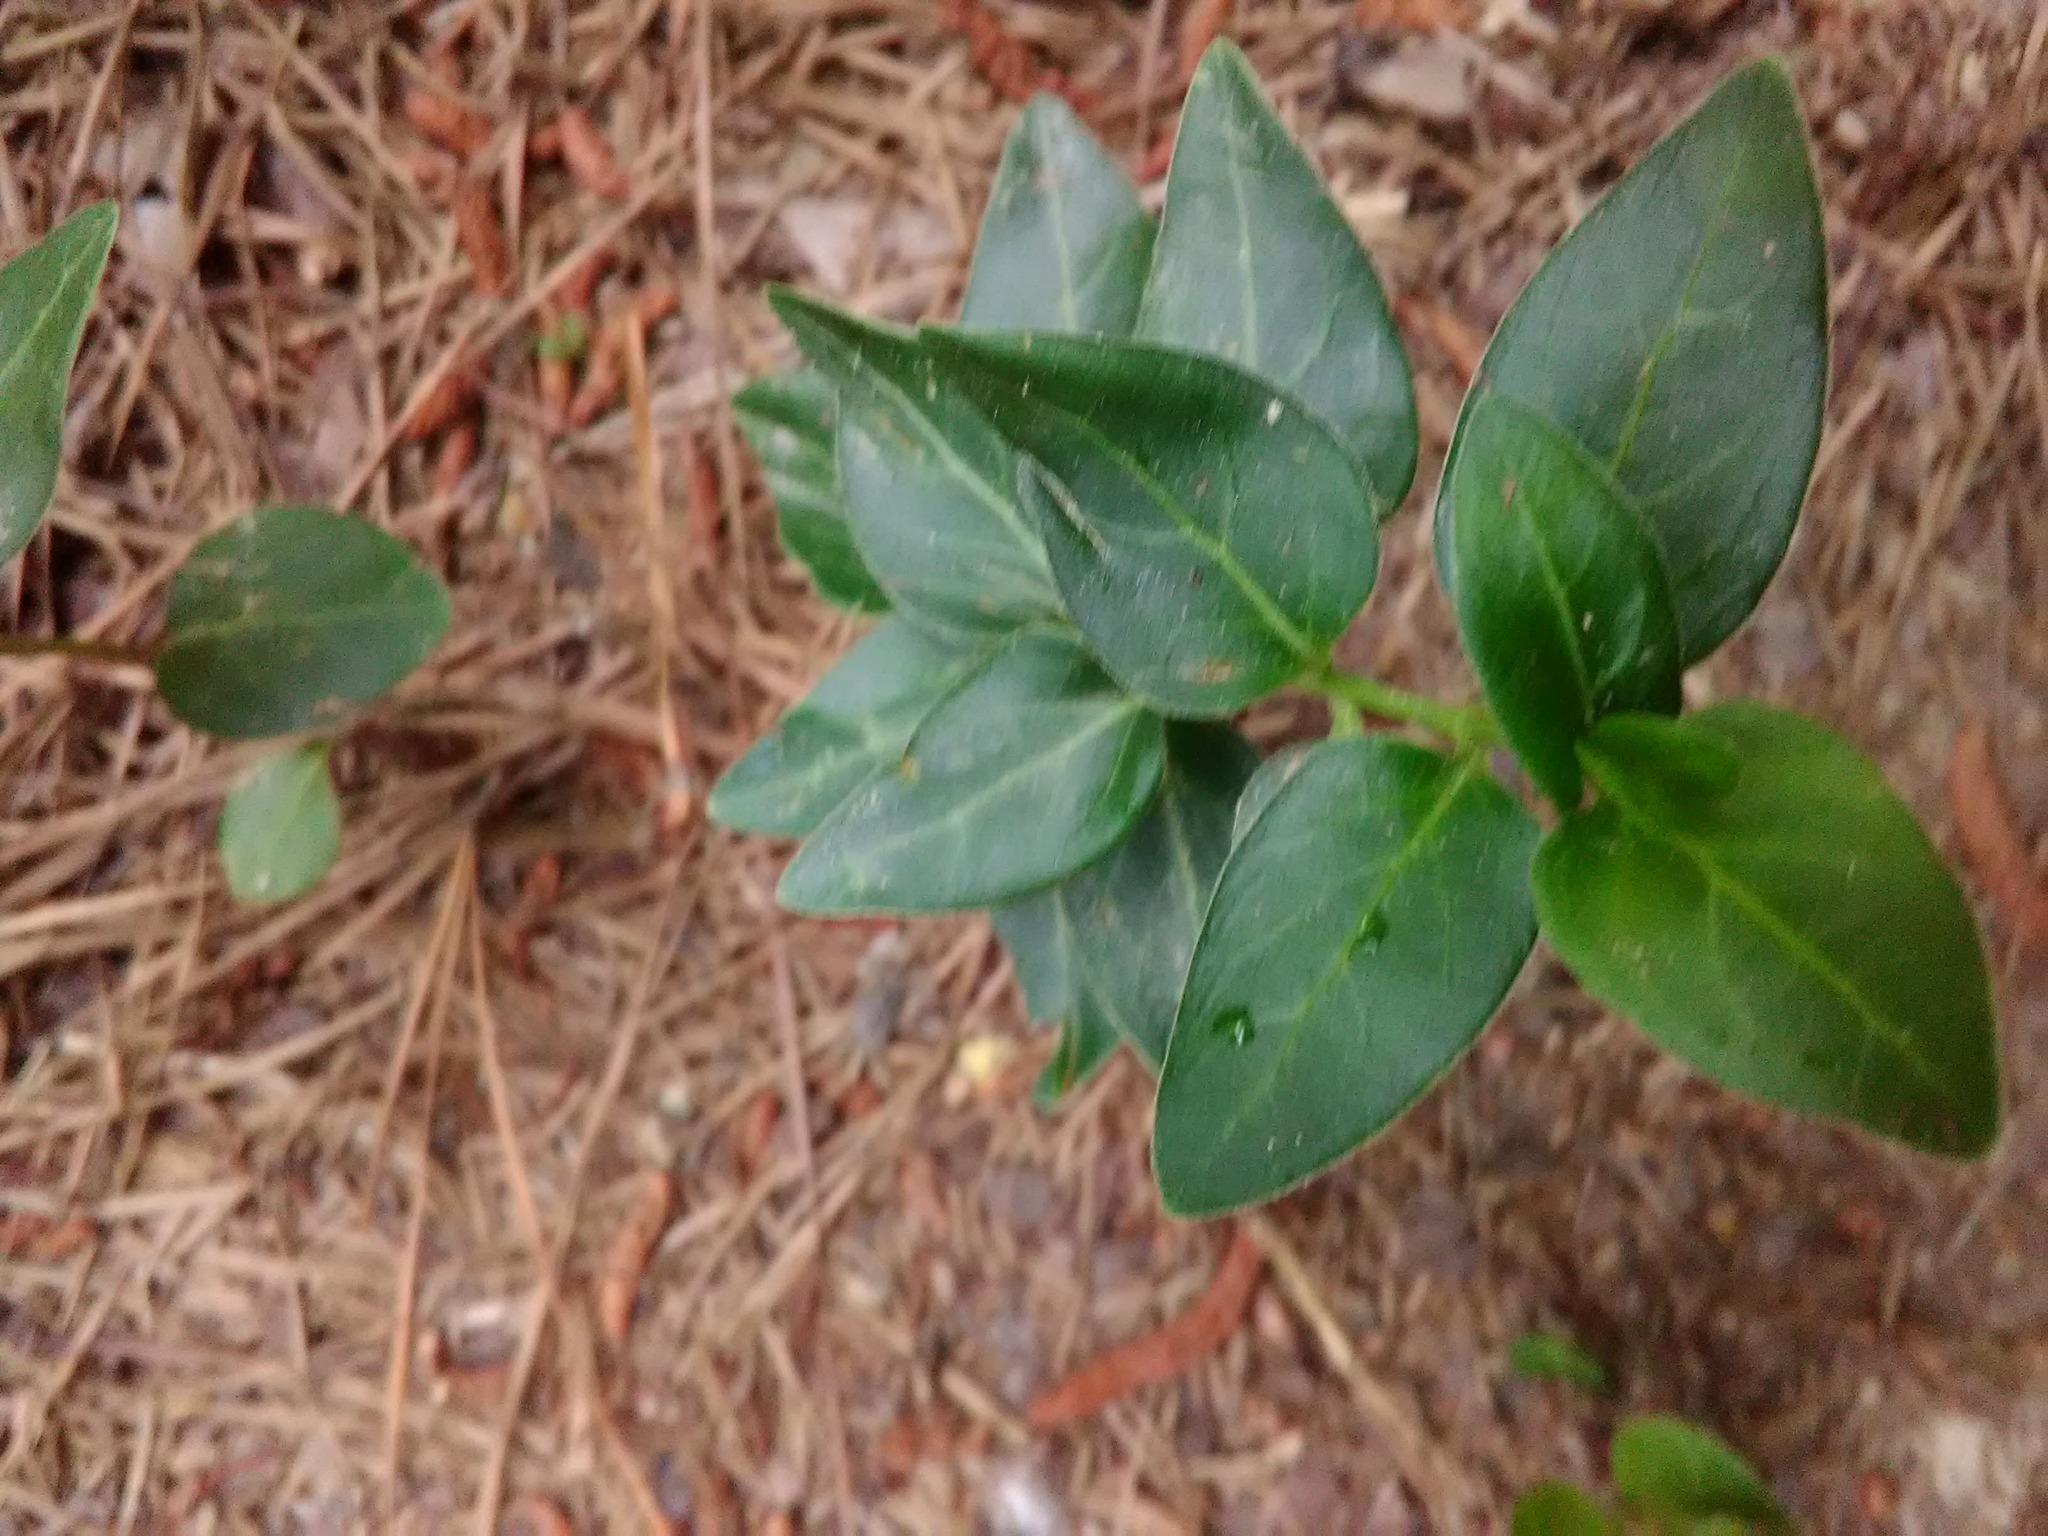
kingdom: Plantae
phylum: Tracheophyta
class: Magnoliopsida
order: Gentianales
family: Apocynaceae
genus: Vinca
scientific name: Vinca major
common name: Greater periwinkle
